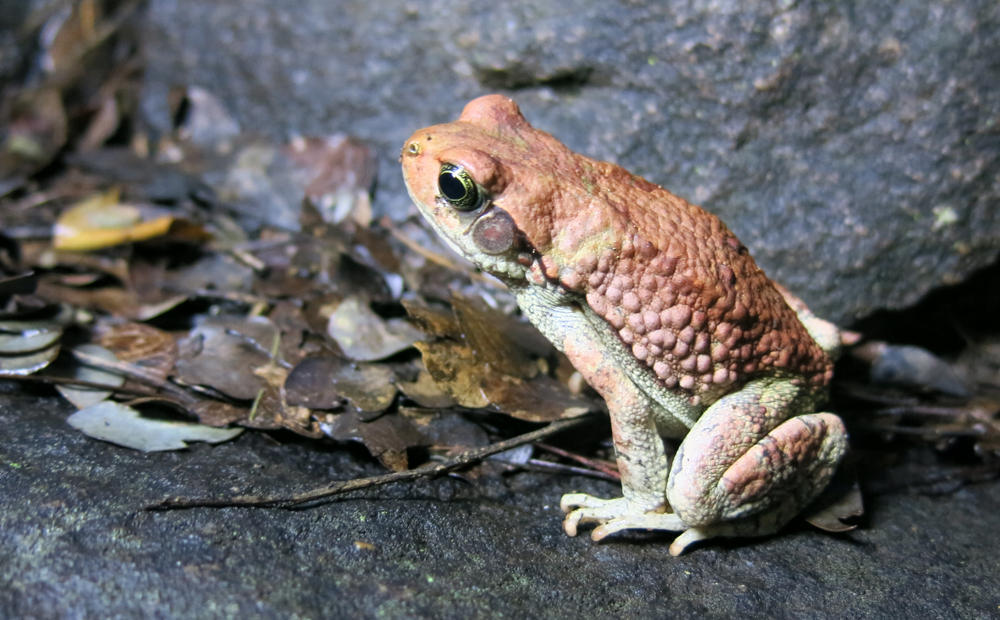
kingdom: Animalia
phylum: Chordata
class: Amphibia
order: Anura
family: Bufonidae
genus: Schismaderma
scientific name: Schismaderma carens
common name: African split-skin toad
